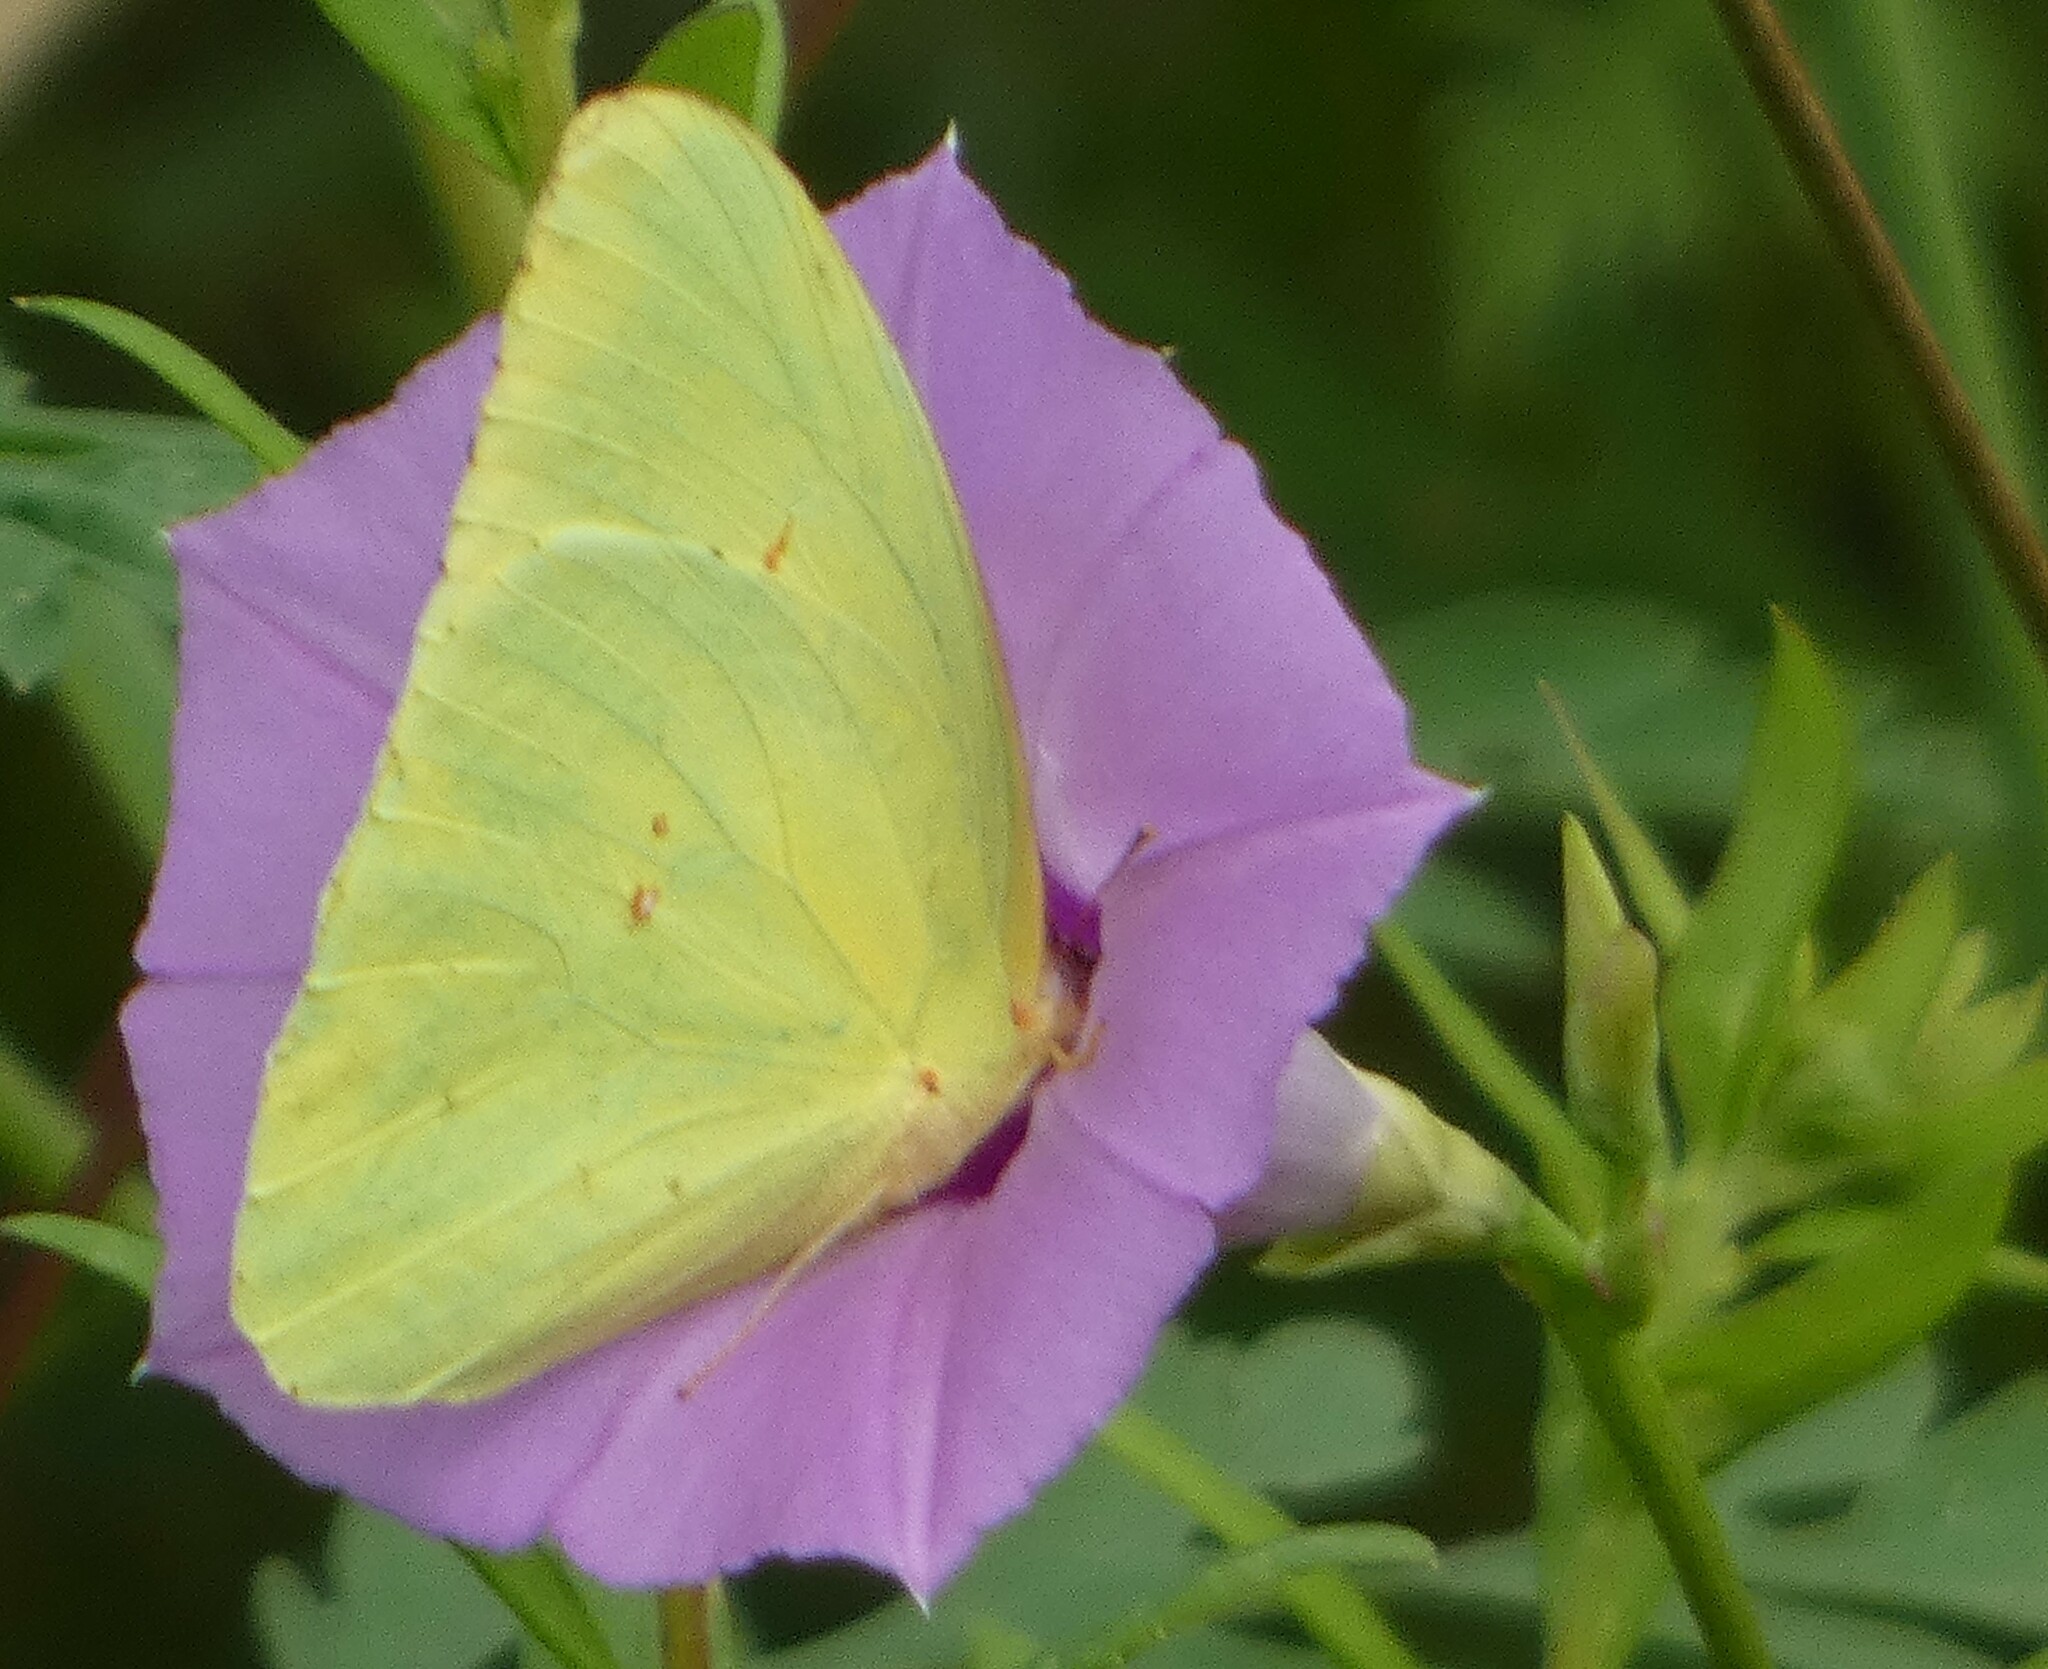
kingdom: Animalia
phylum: Arthropoda
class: Insecta
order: Lepidoptera
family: Pieridae
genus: Phoebis
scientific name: Phoebis sennae
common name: Cloudless sulphur
